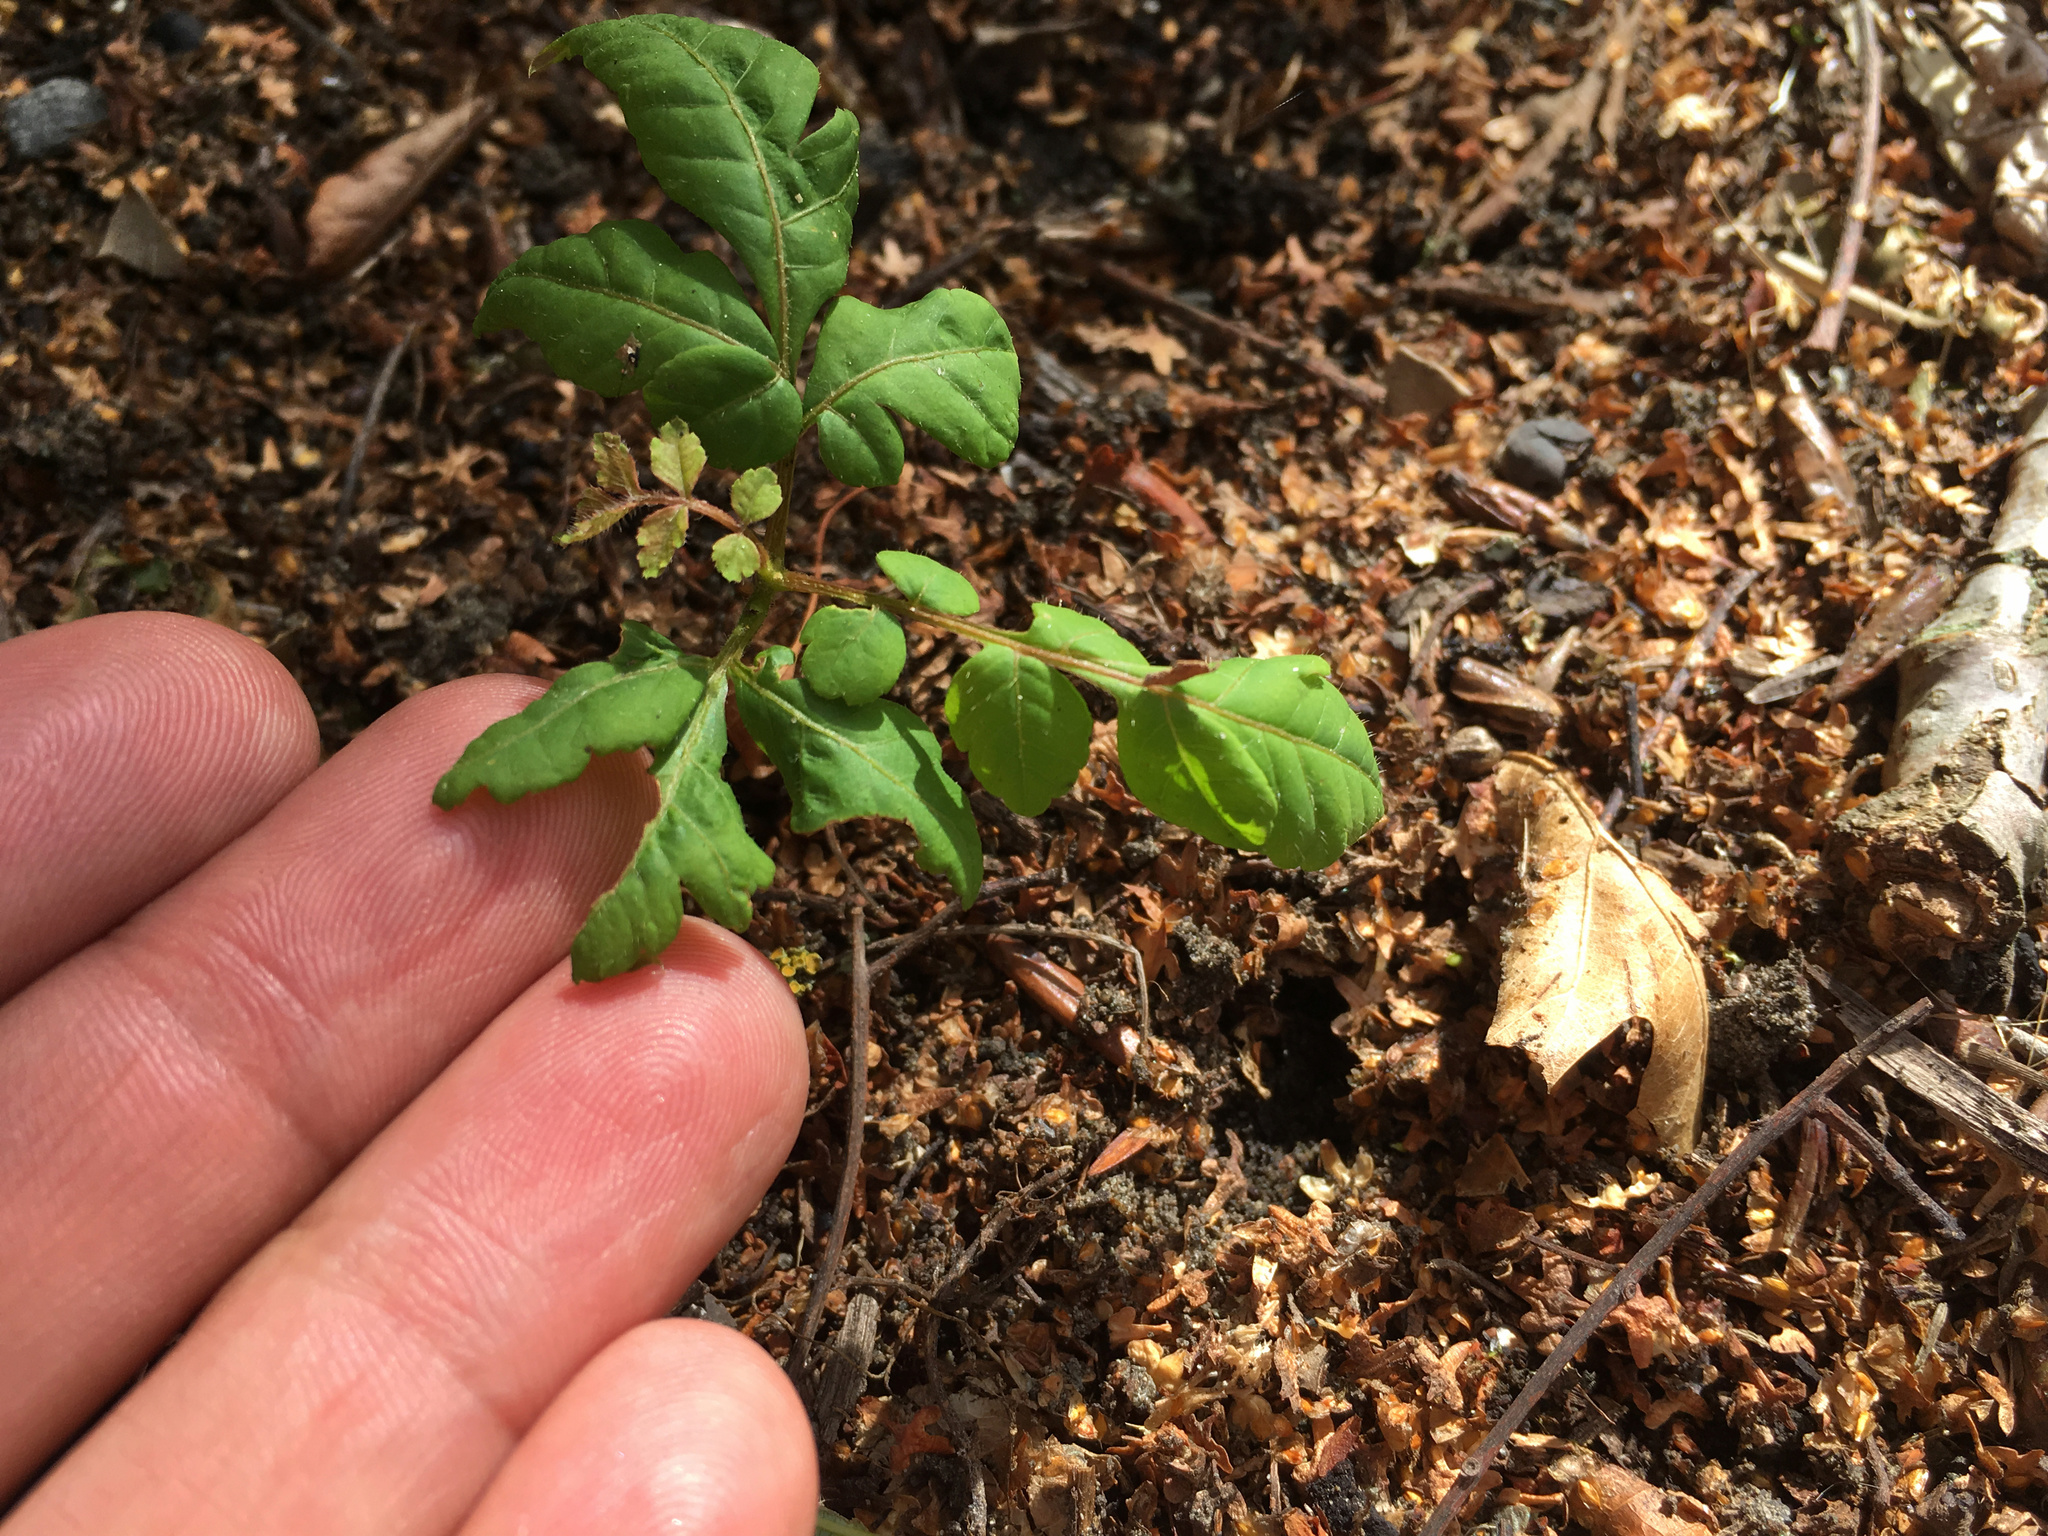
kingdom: Plantae
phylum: Tracheophyta
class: Magnoliopsida
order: Sapindales
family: Sapindaceae
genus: Koelreuteria
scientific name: Koelreuteria paniculata
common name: Pride-of-india
